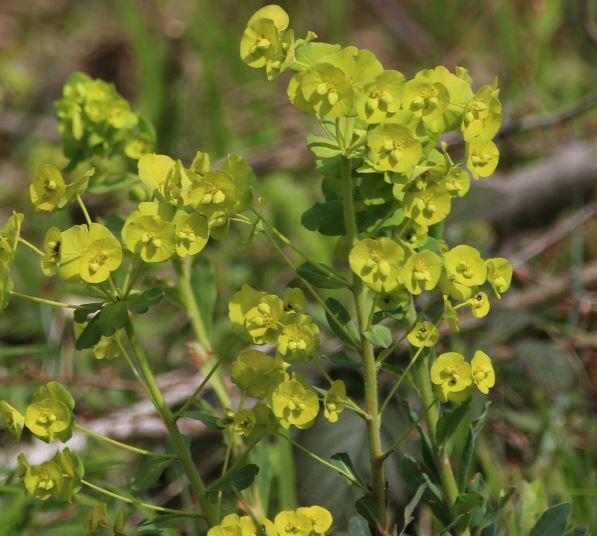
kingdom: Plantae
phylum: Tracheophyta
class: Magnoliopsida
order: Malpighiales
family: Euphorbiaceae
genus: Euphorbia
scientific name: Euphorbia amygdaloides
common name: Wood spurge
